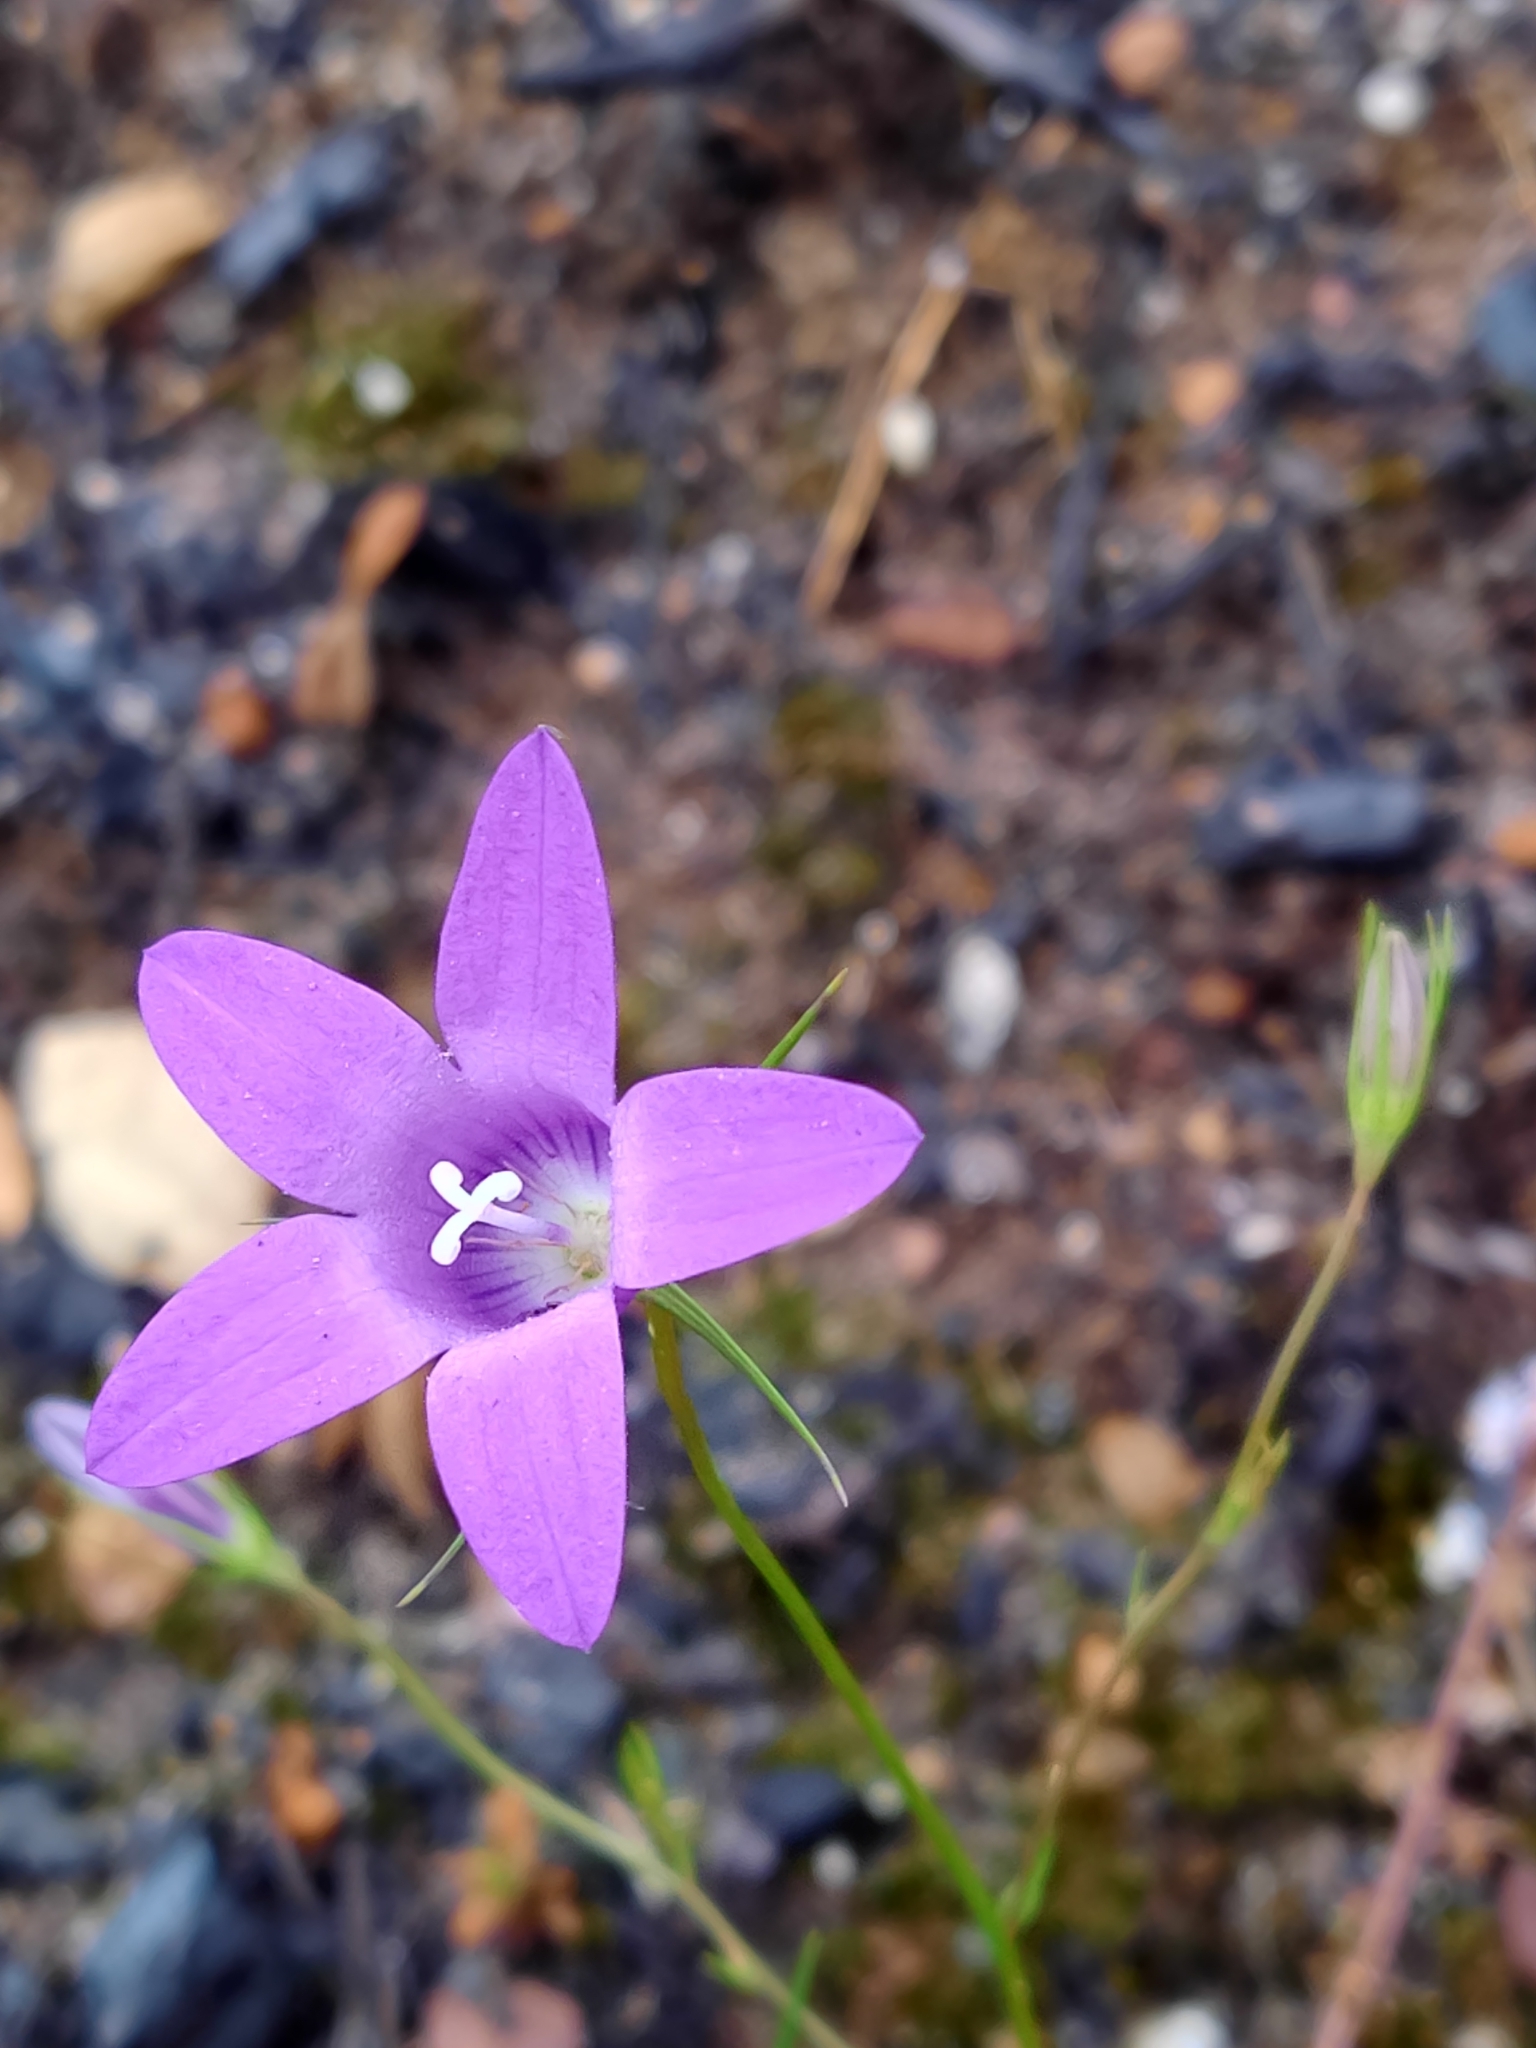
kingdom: Plantae
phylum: Tracheophyta
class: Magnoliopsida
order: Asterales
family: Campanulaceae
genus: Campanula
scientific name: Campanula lusitanica
